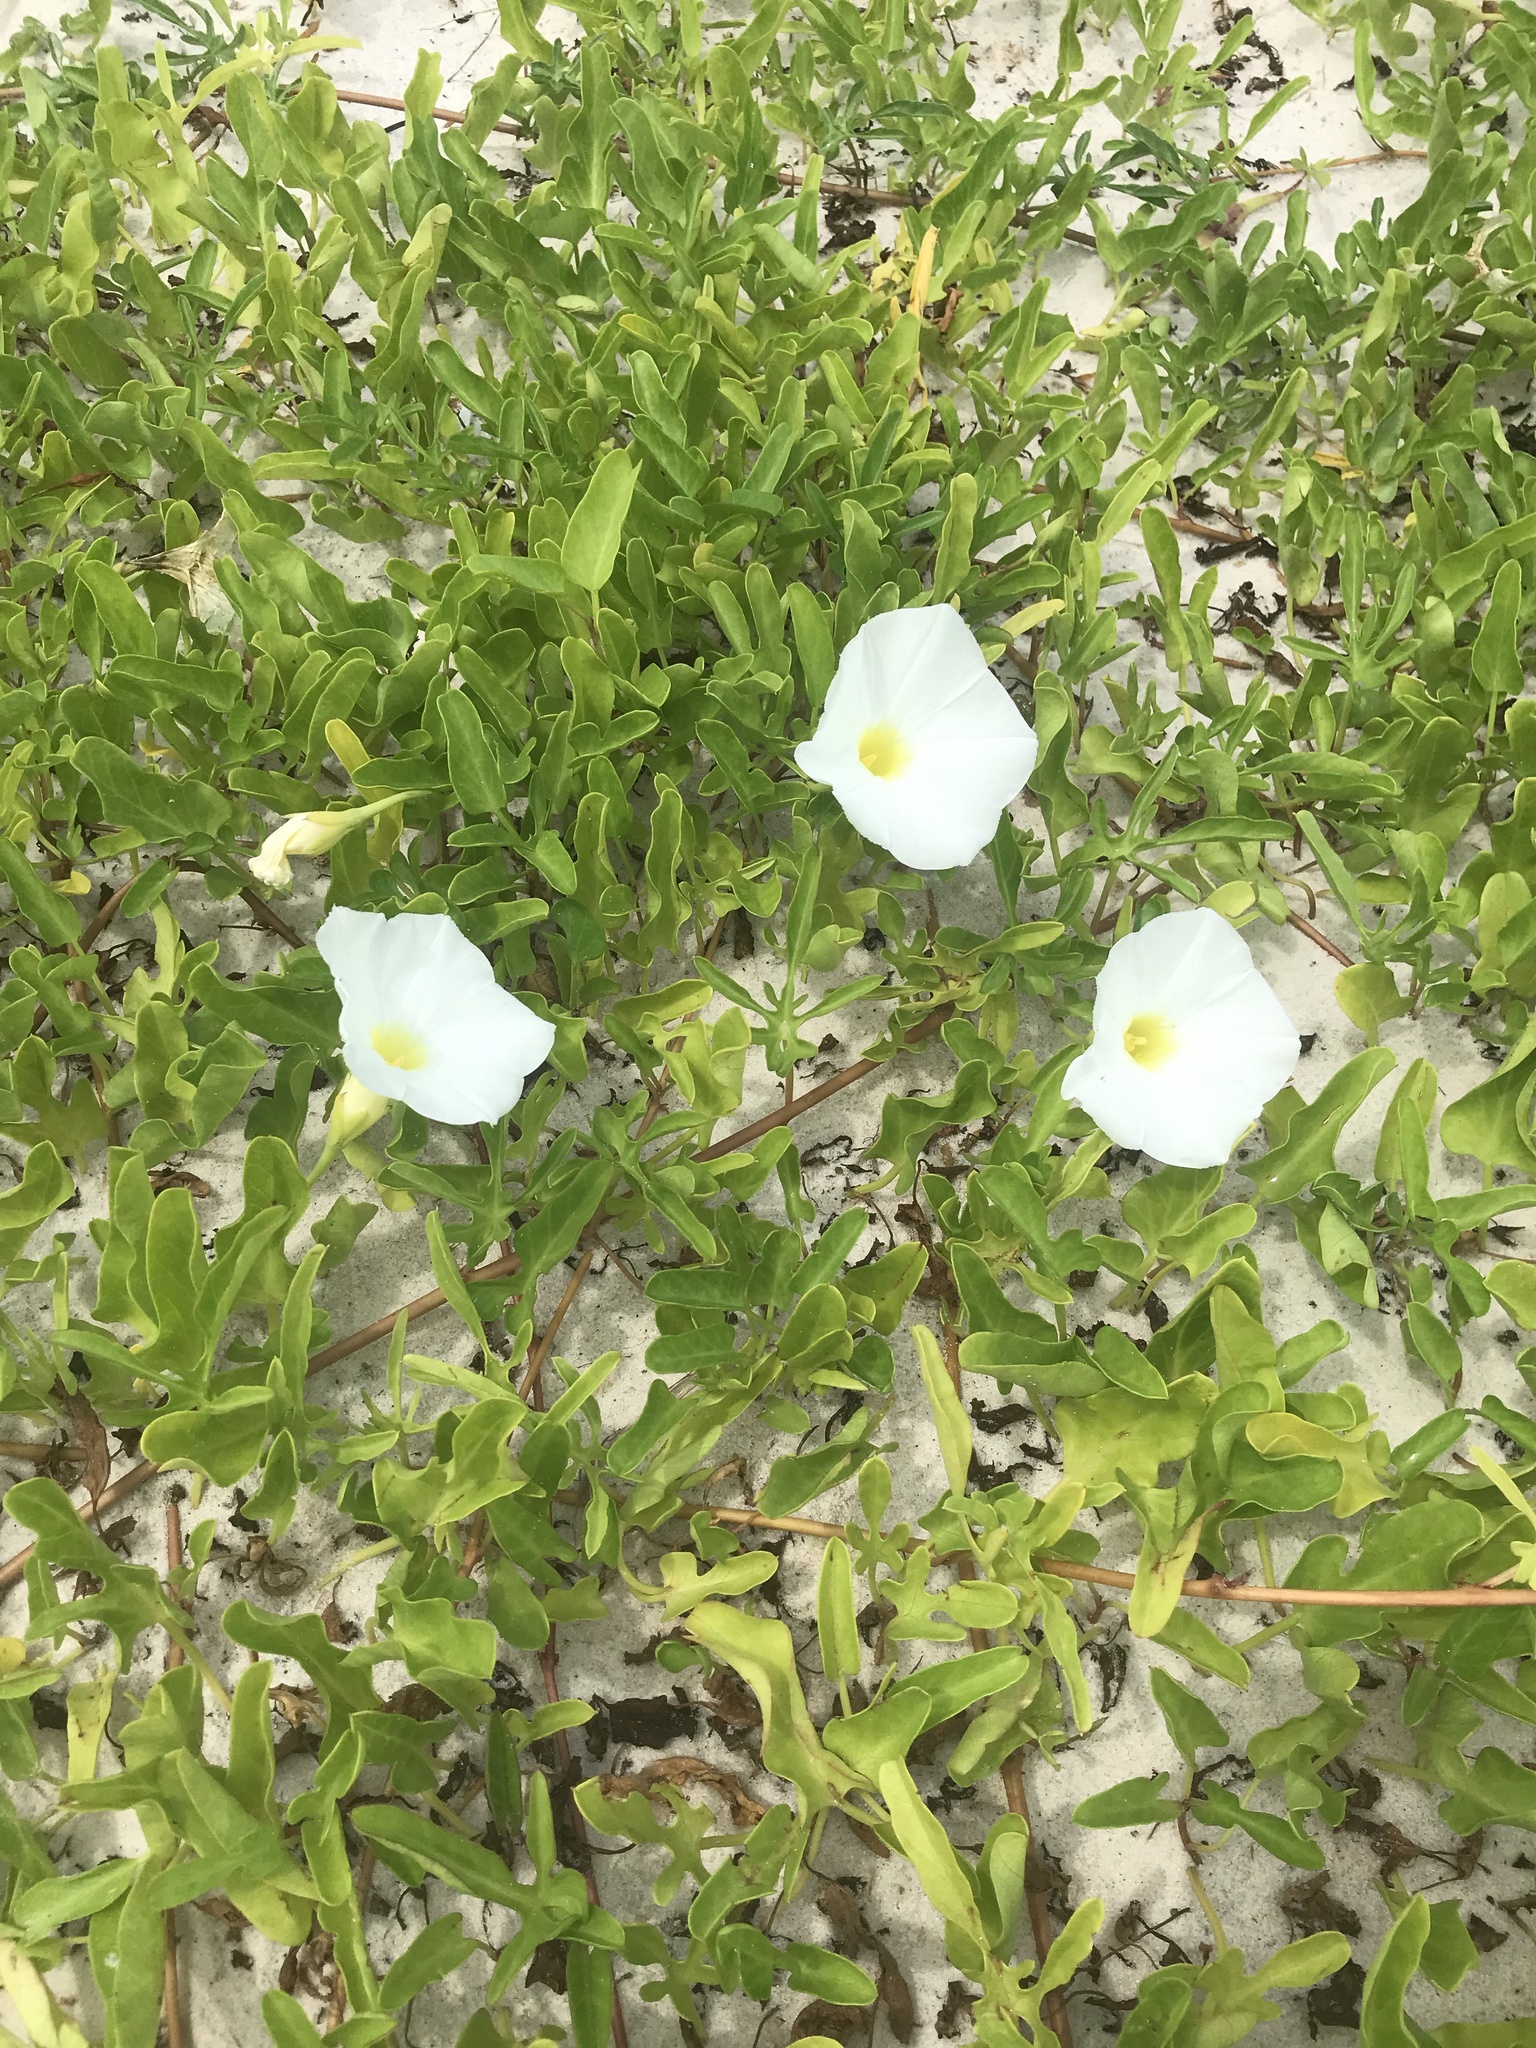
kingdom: Plantae
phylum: Tracheophyta
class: Magnoliopsida
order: Solanales
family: Convolvulaceae
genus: Ipomoea
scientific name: Ipomoea imperati
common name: Fiddle-leaf morning-glory
